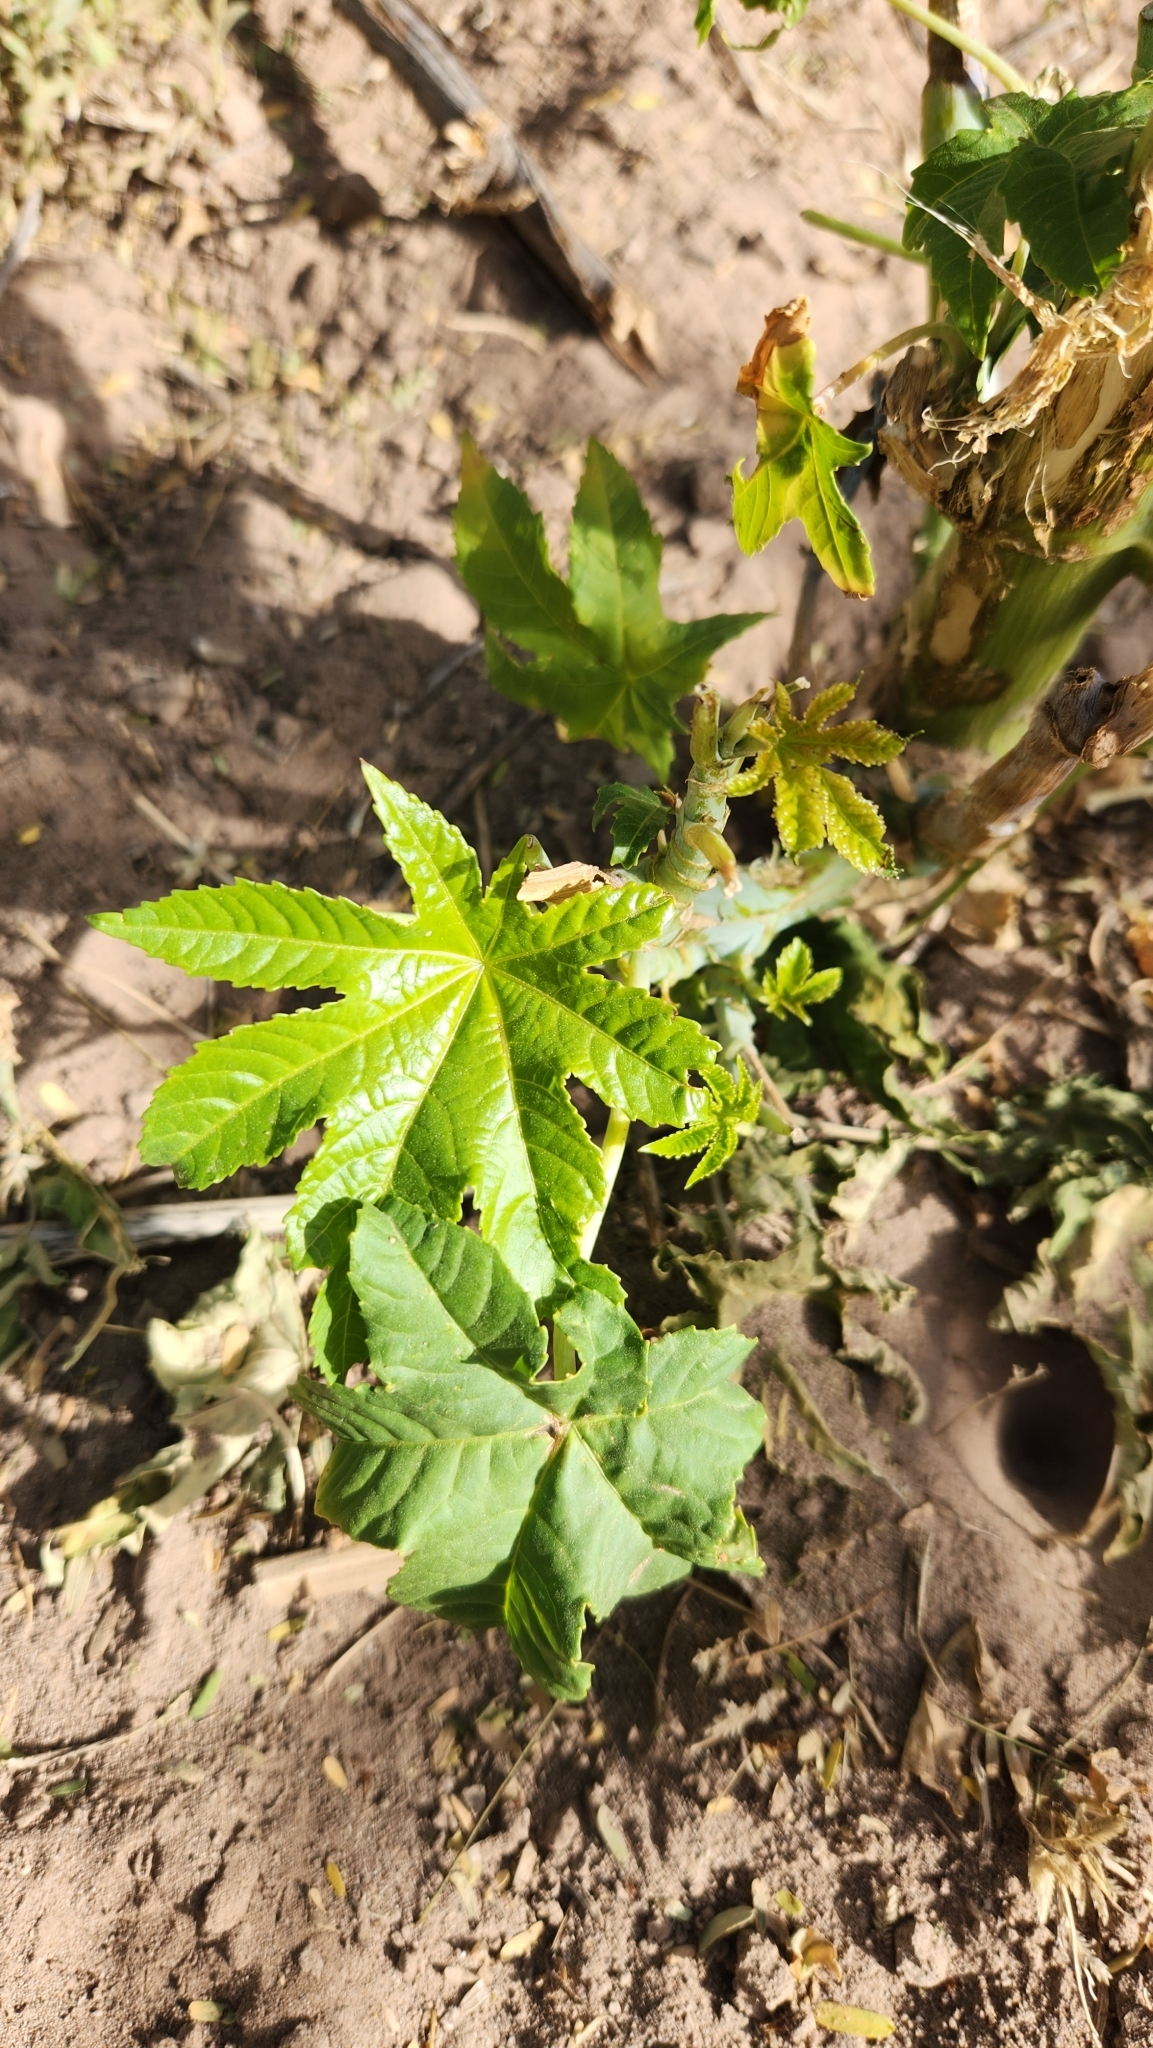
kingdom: Plantae
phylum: Tracheophyta
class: Magnoliopsida
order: Malpighiales
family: Euphorbiaceae
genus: Ricinus
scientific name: Ricinus communis
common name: Castor-oil-plant
